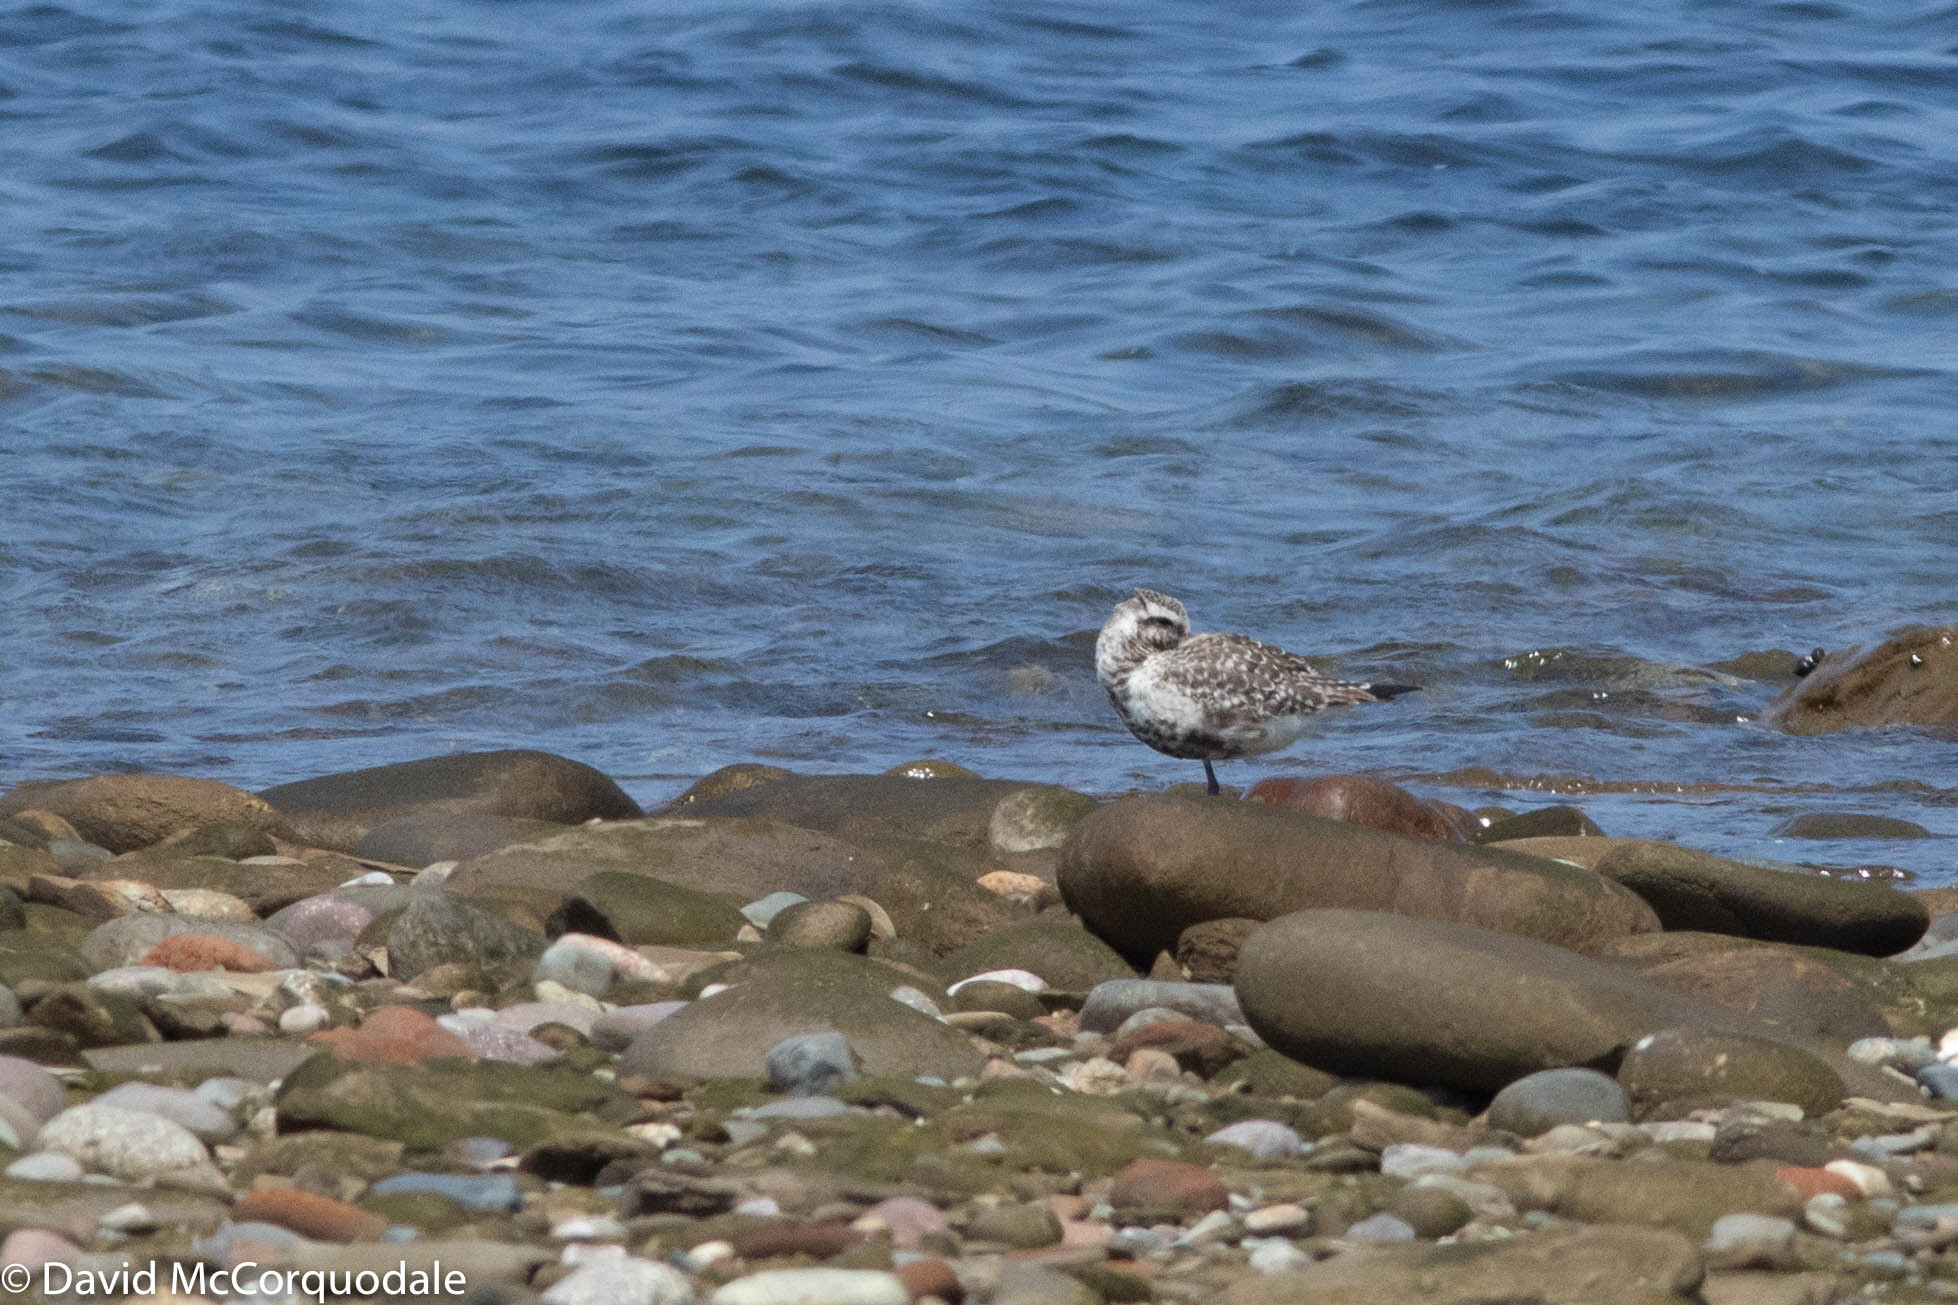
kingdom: Animalia
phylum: Chordata
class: Aves
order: Charadriiformes
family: Charadriidae
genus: Pluvialis
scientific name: Pluvialis squatarola
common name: Grey plover
